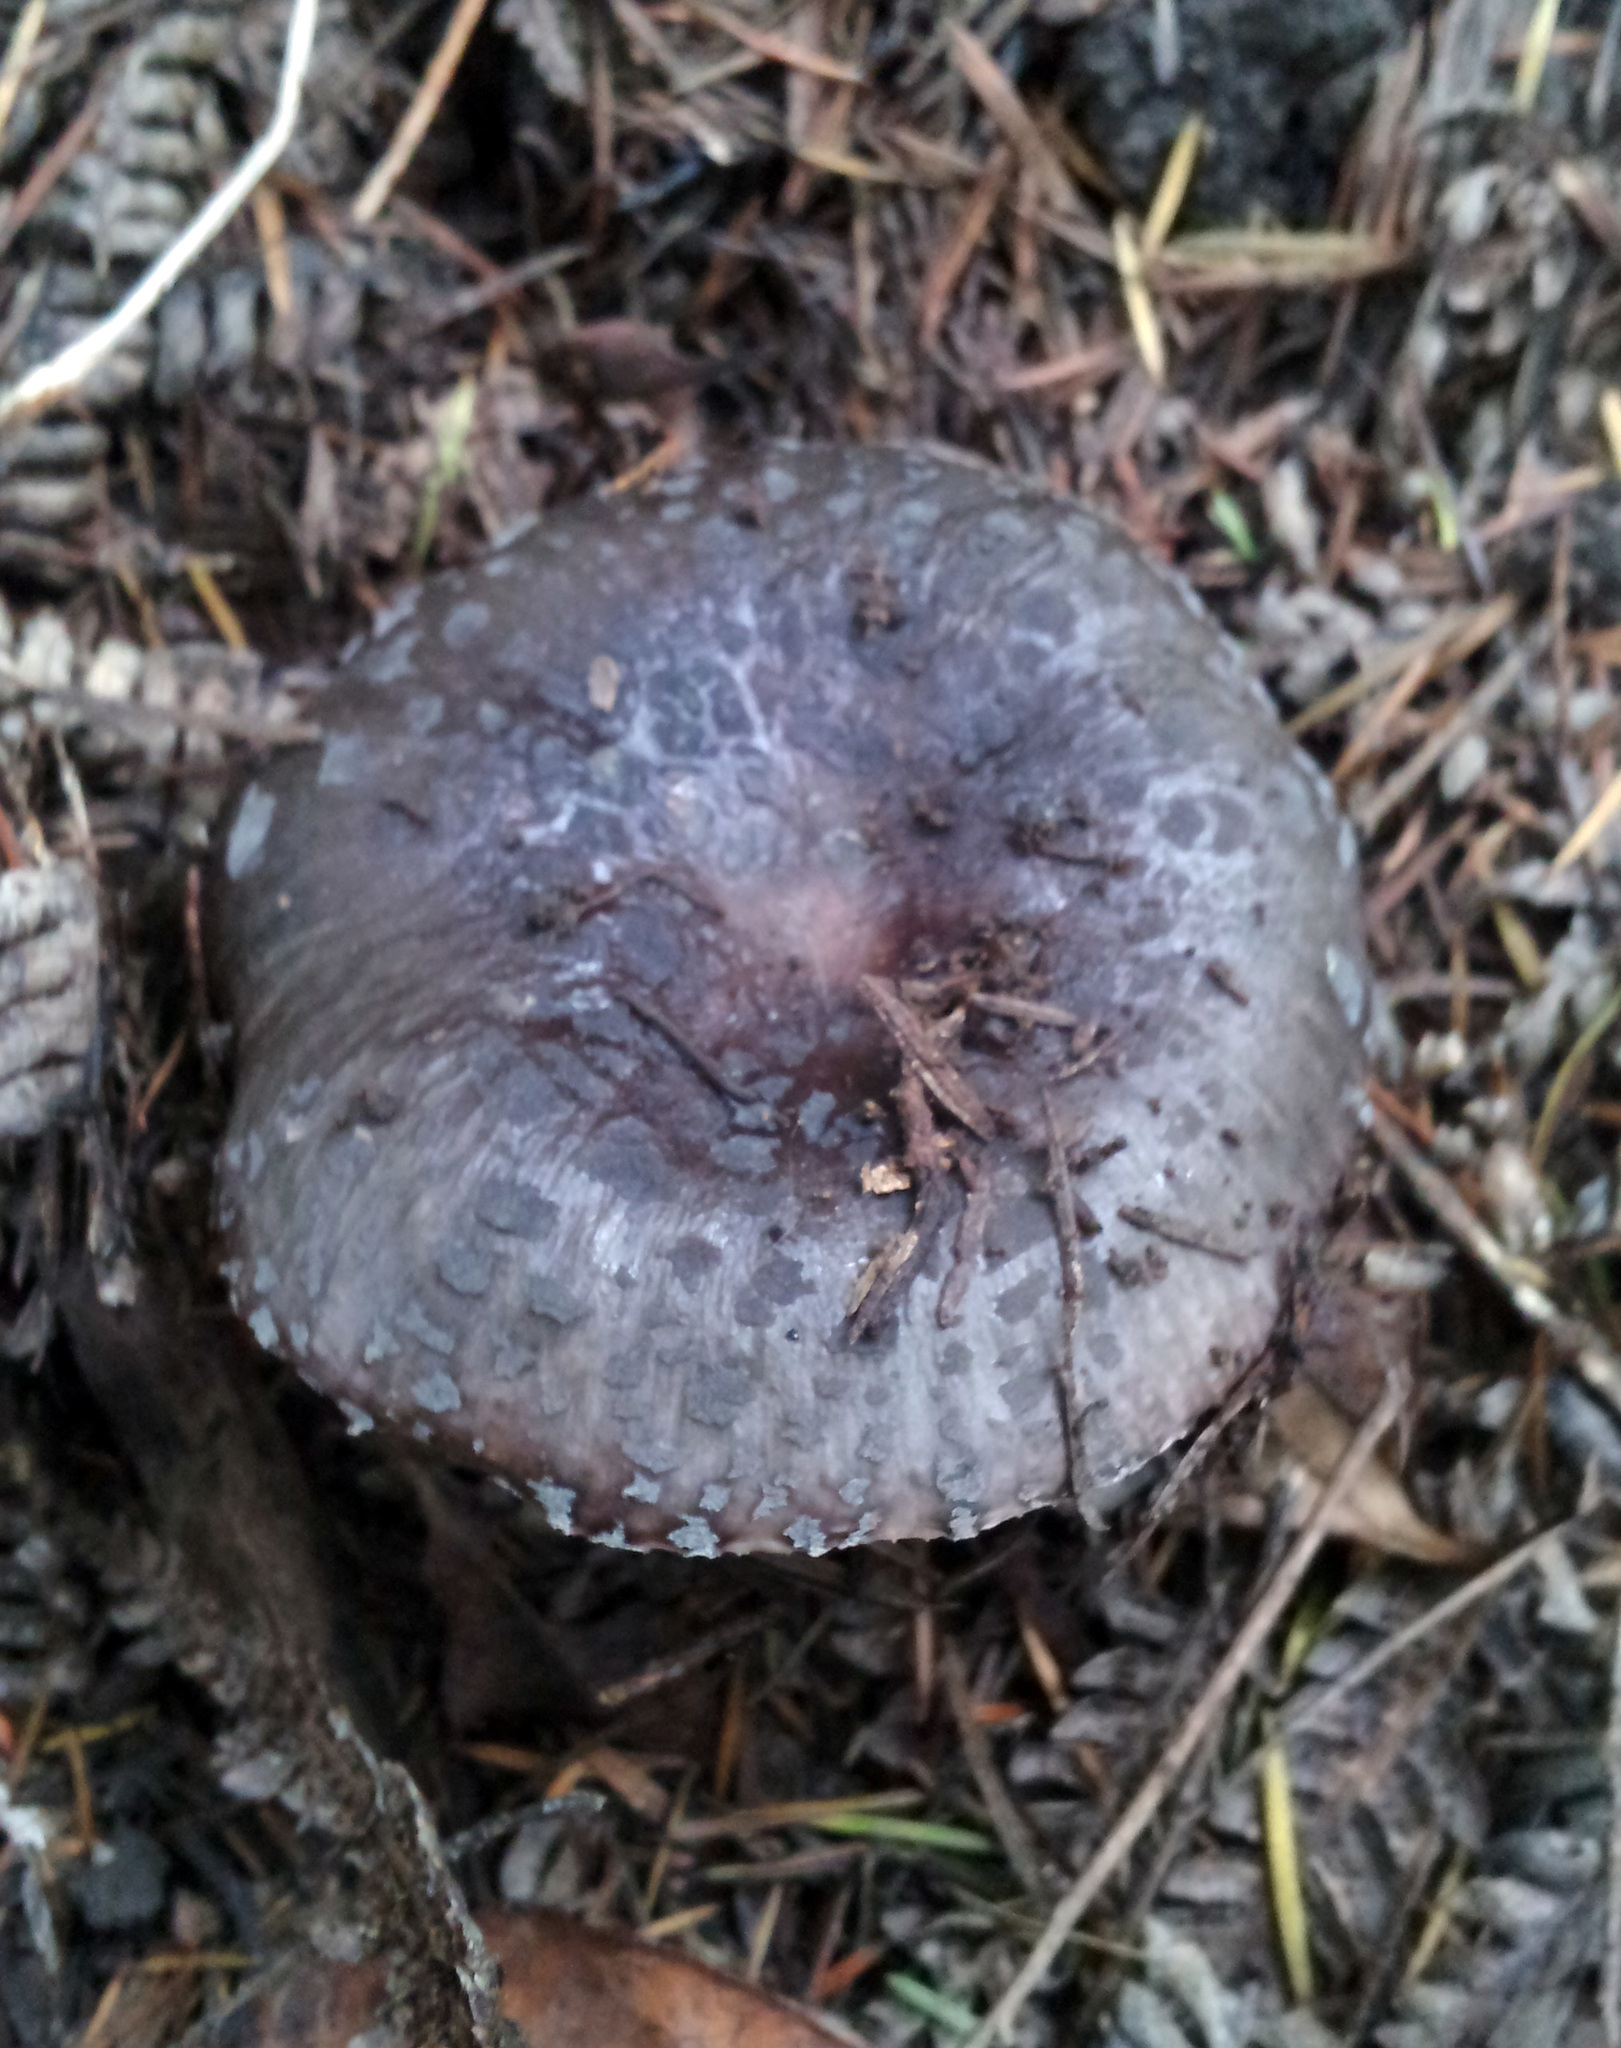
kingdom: Fungi
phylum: Basidiomycota
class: Agaricomycetes
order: Russulales
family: Russulaceae
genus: Russula
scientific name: Russula griseoviridis
